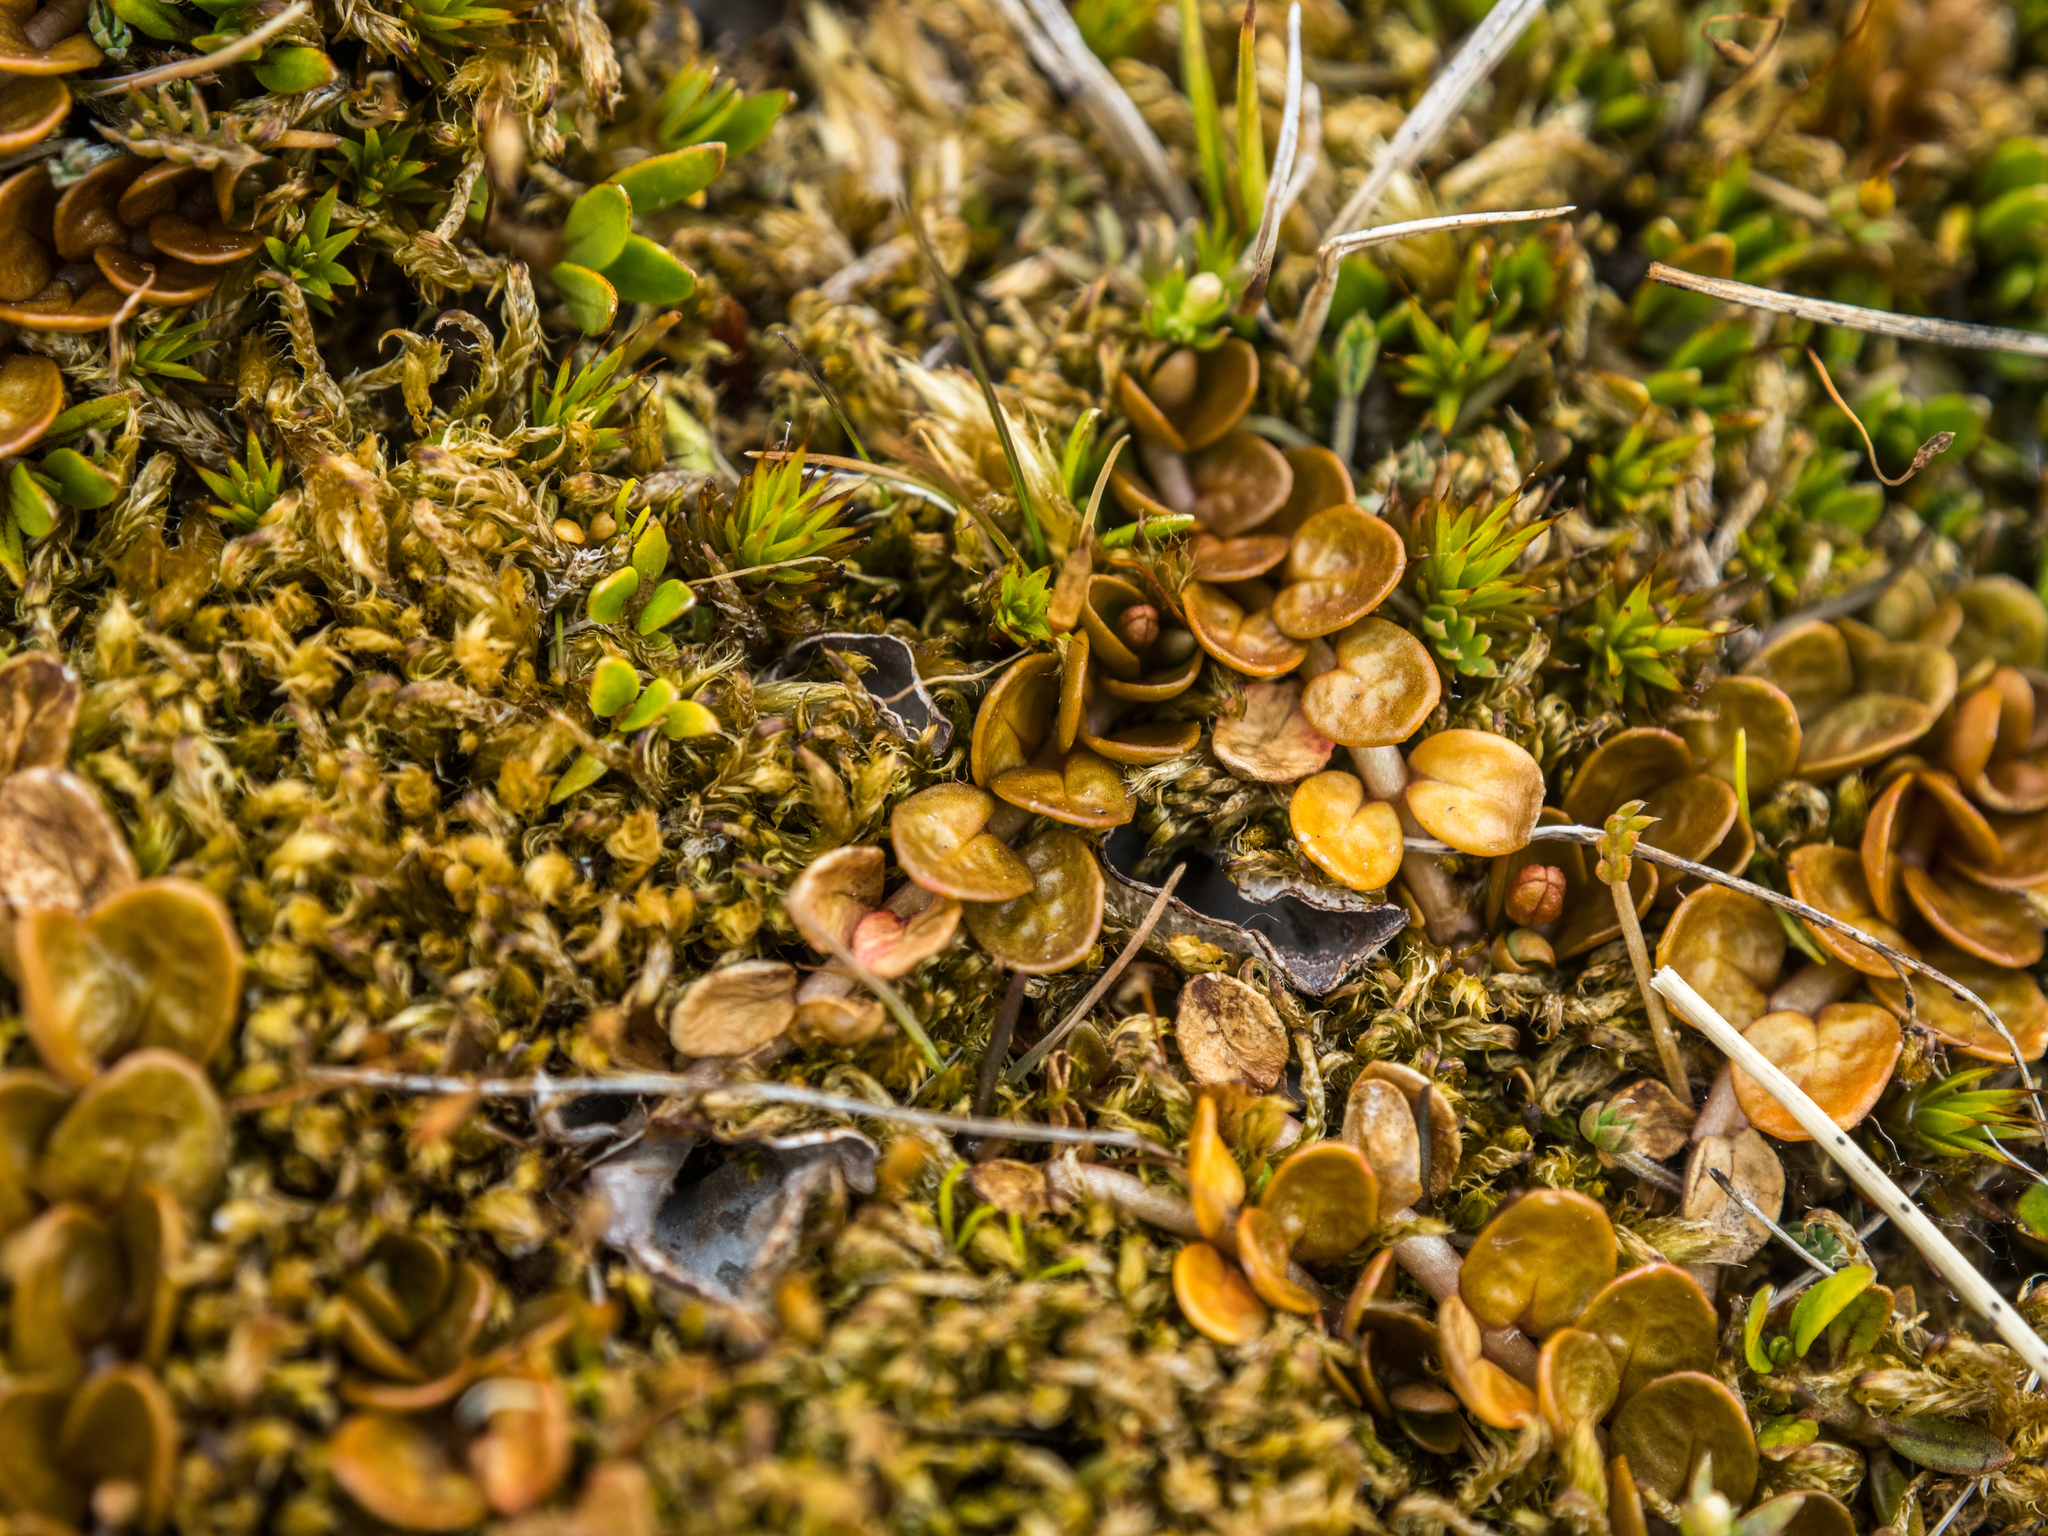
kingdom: Plantae
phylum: Tracheophyta
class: Magnoliopsida
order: Myrtales
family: Onagraceae
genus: Epilobium
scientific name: Epilobium komarovianum
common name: Bronzy willowherb
